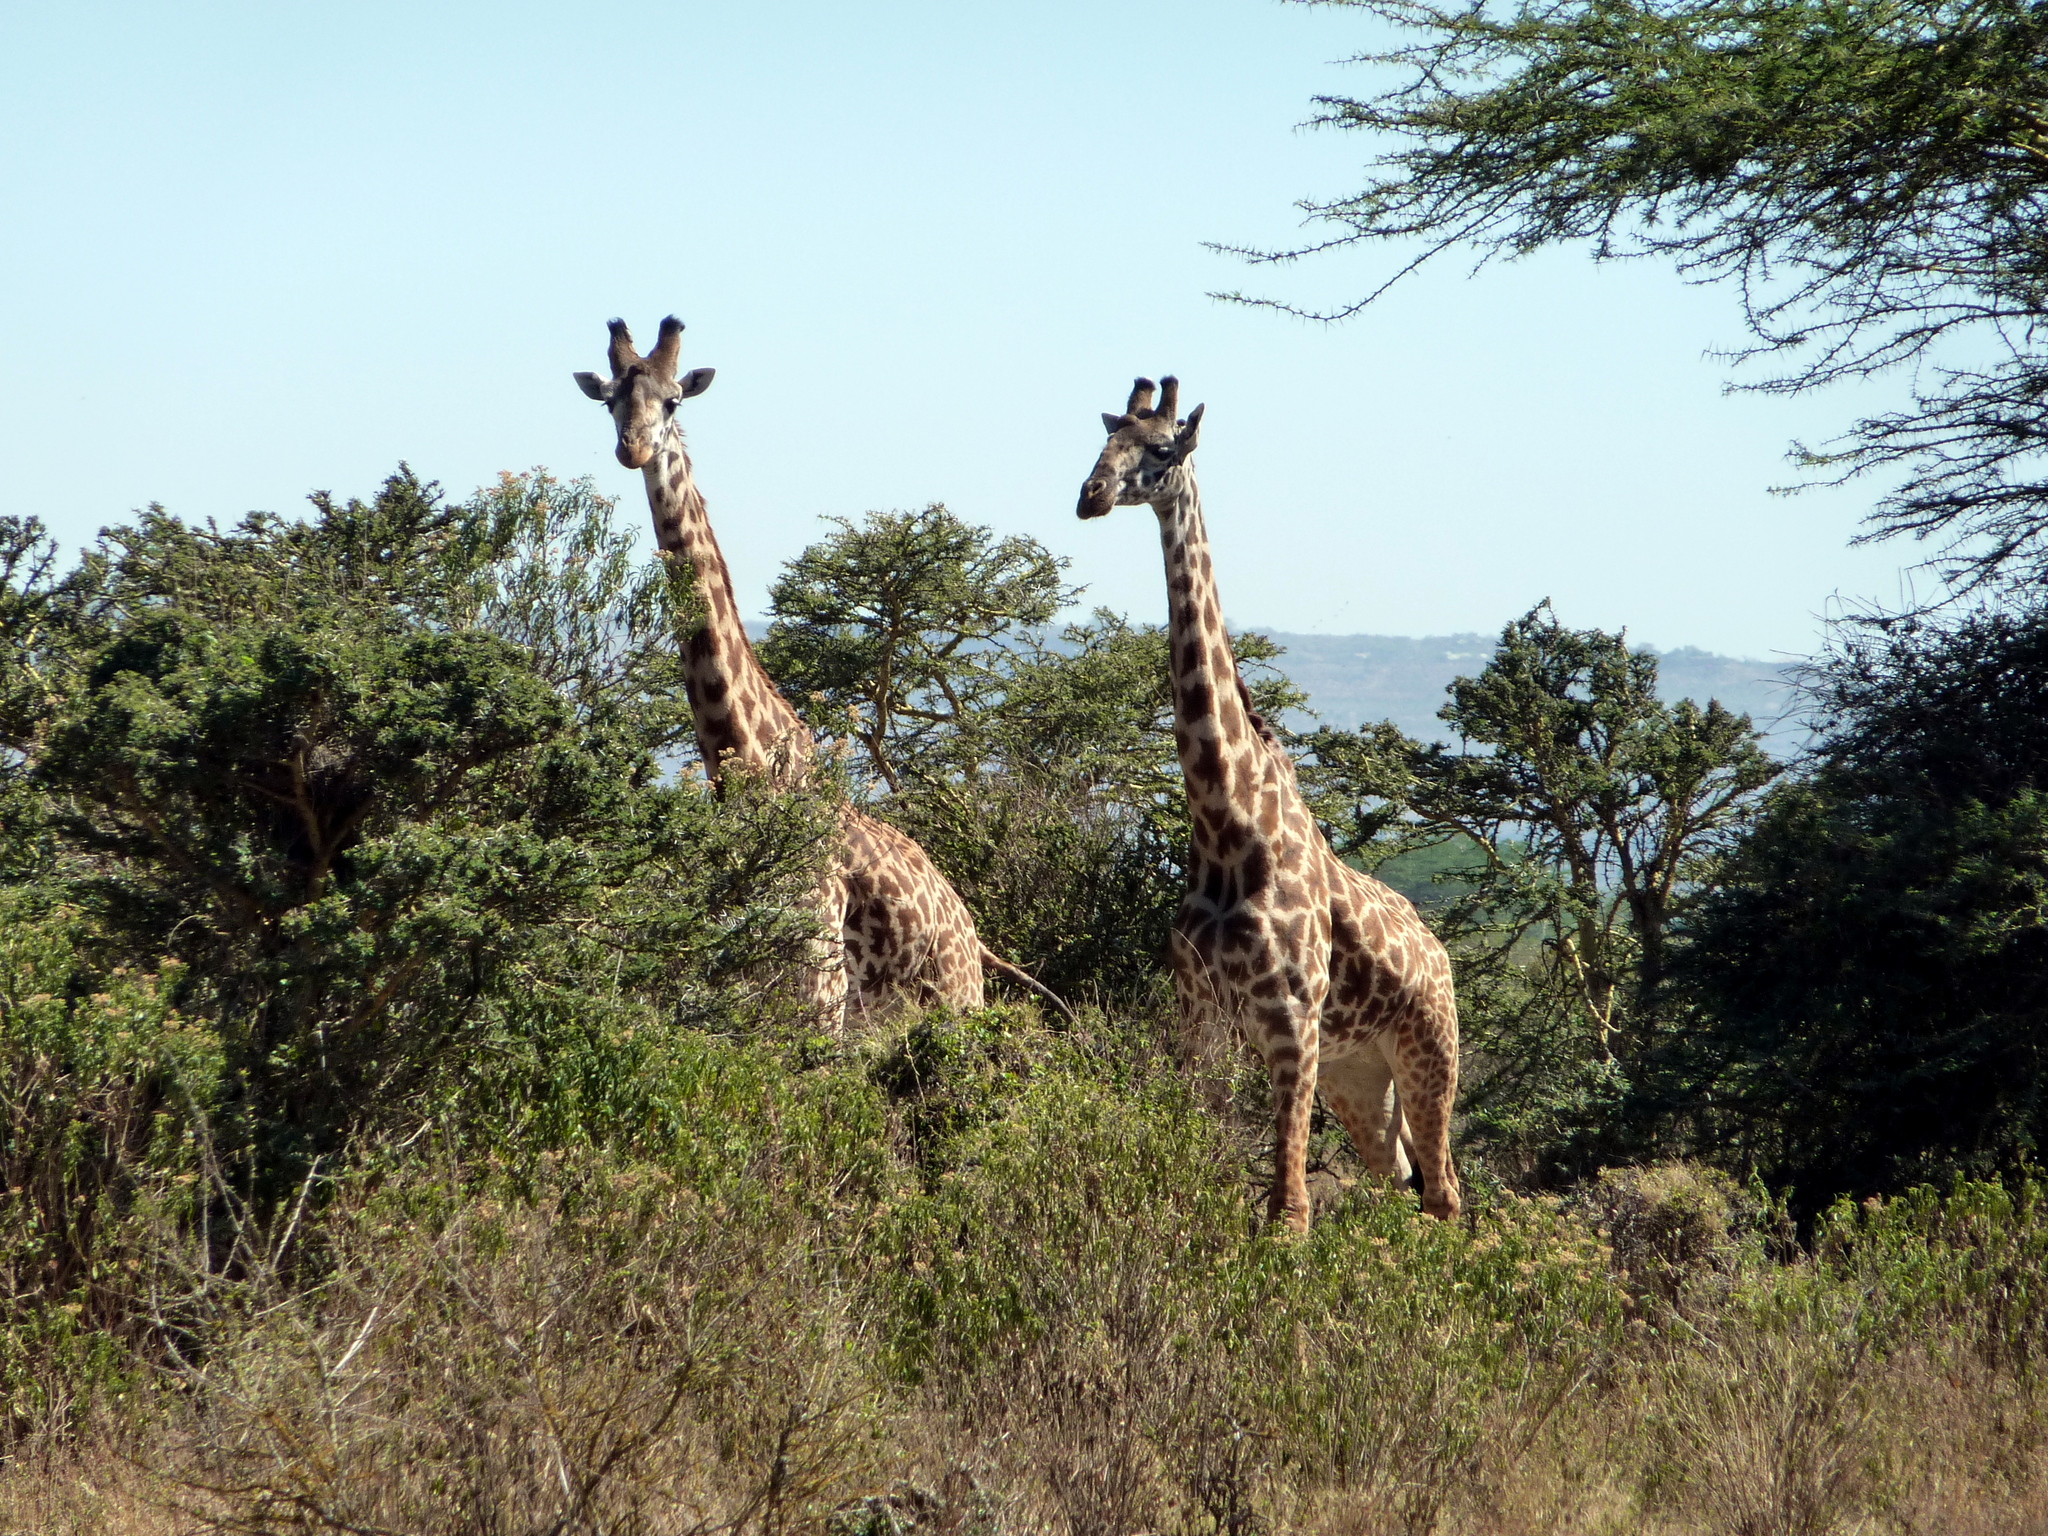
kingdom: Animalia
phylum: Chordata
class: Mammalia
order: Artiodactyla
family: Giraffidae
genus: Giraffa
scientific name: Giraffa tippelskirchi
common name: Masai giraffe
